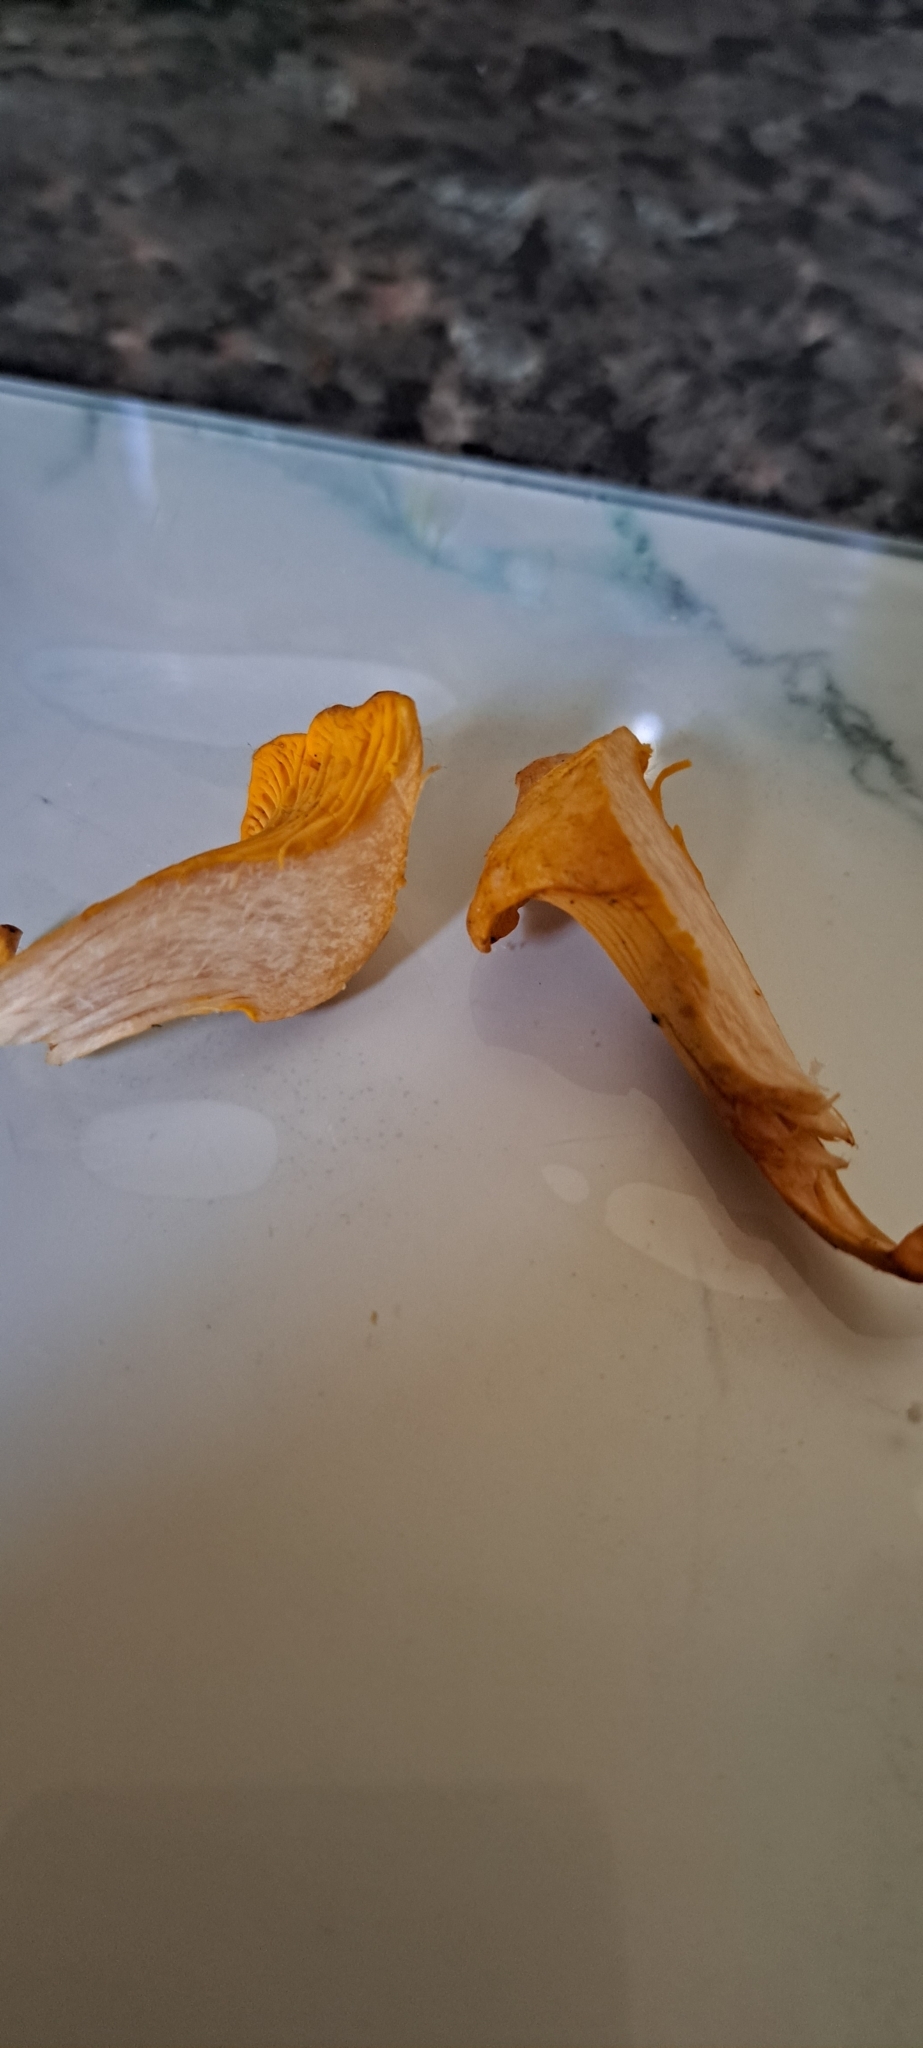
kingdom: Fungi
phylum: Basidiomycota
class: Agaricomycetes
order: Cantharellales
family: Hydnaceae
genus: Cantharellus
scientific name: Cantharellus cibarius
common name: Chanterelle
